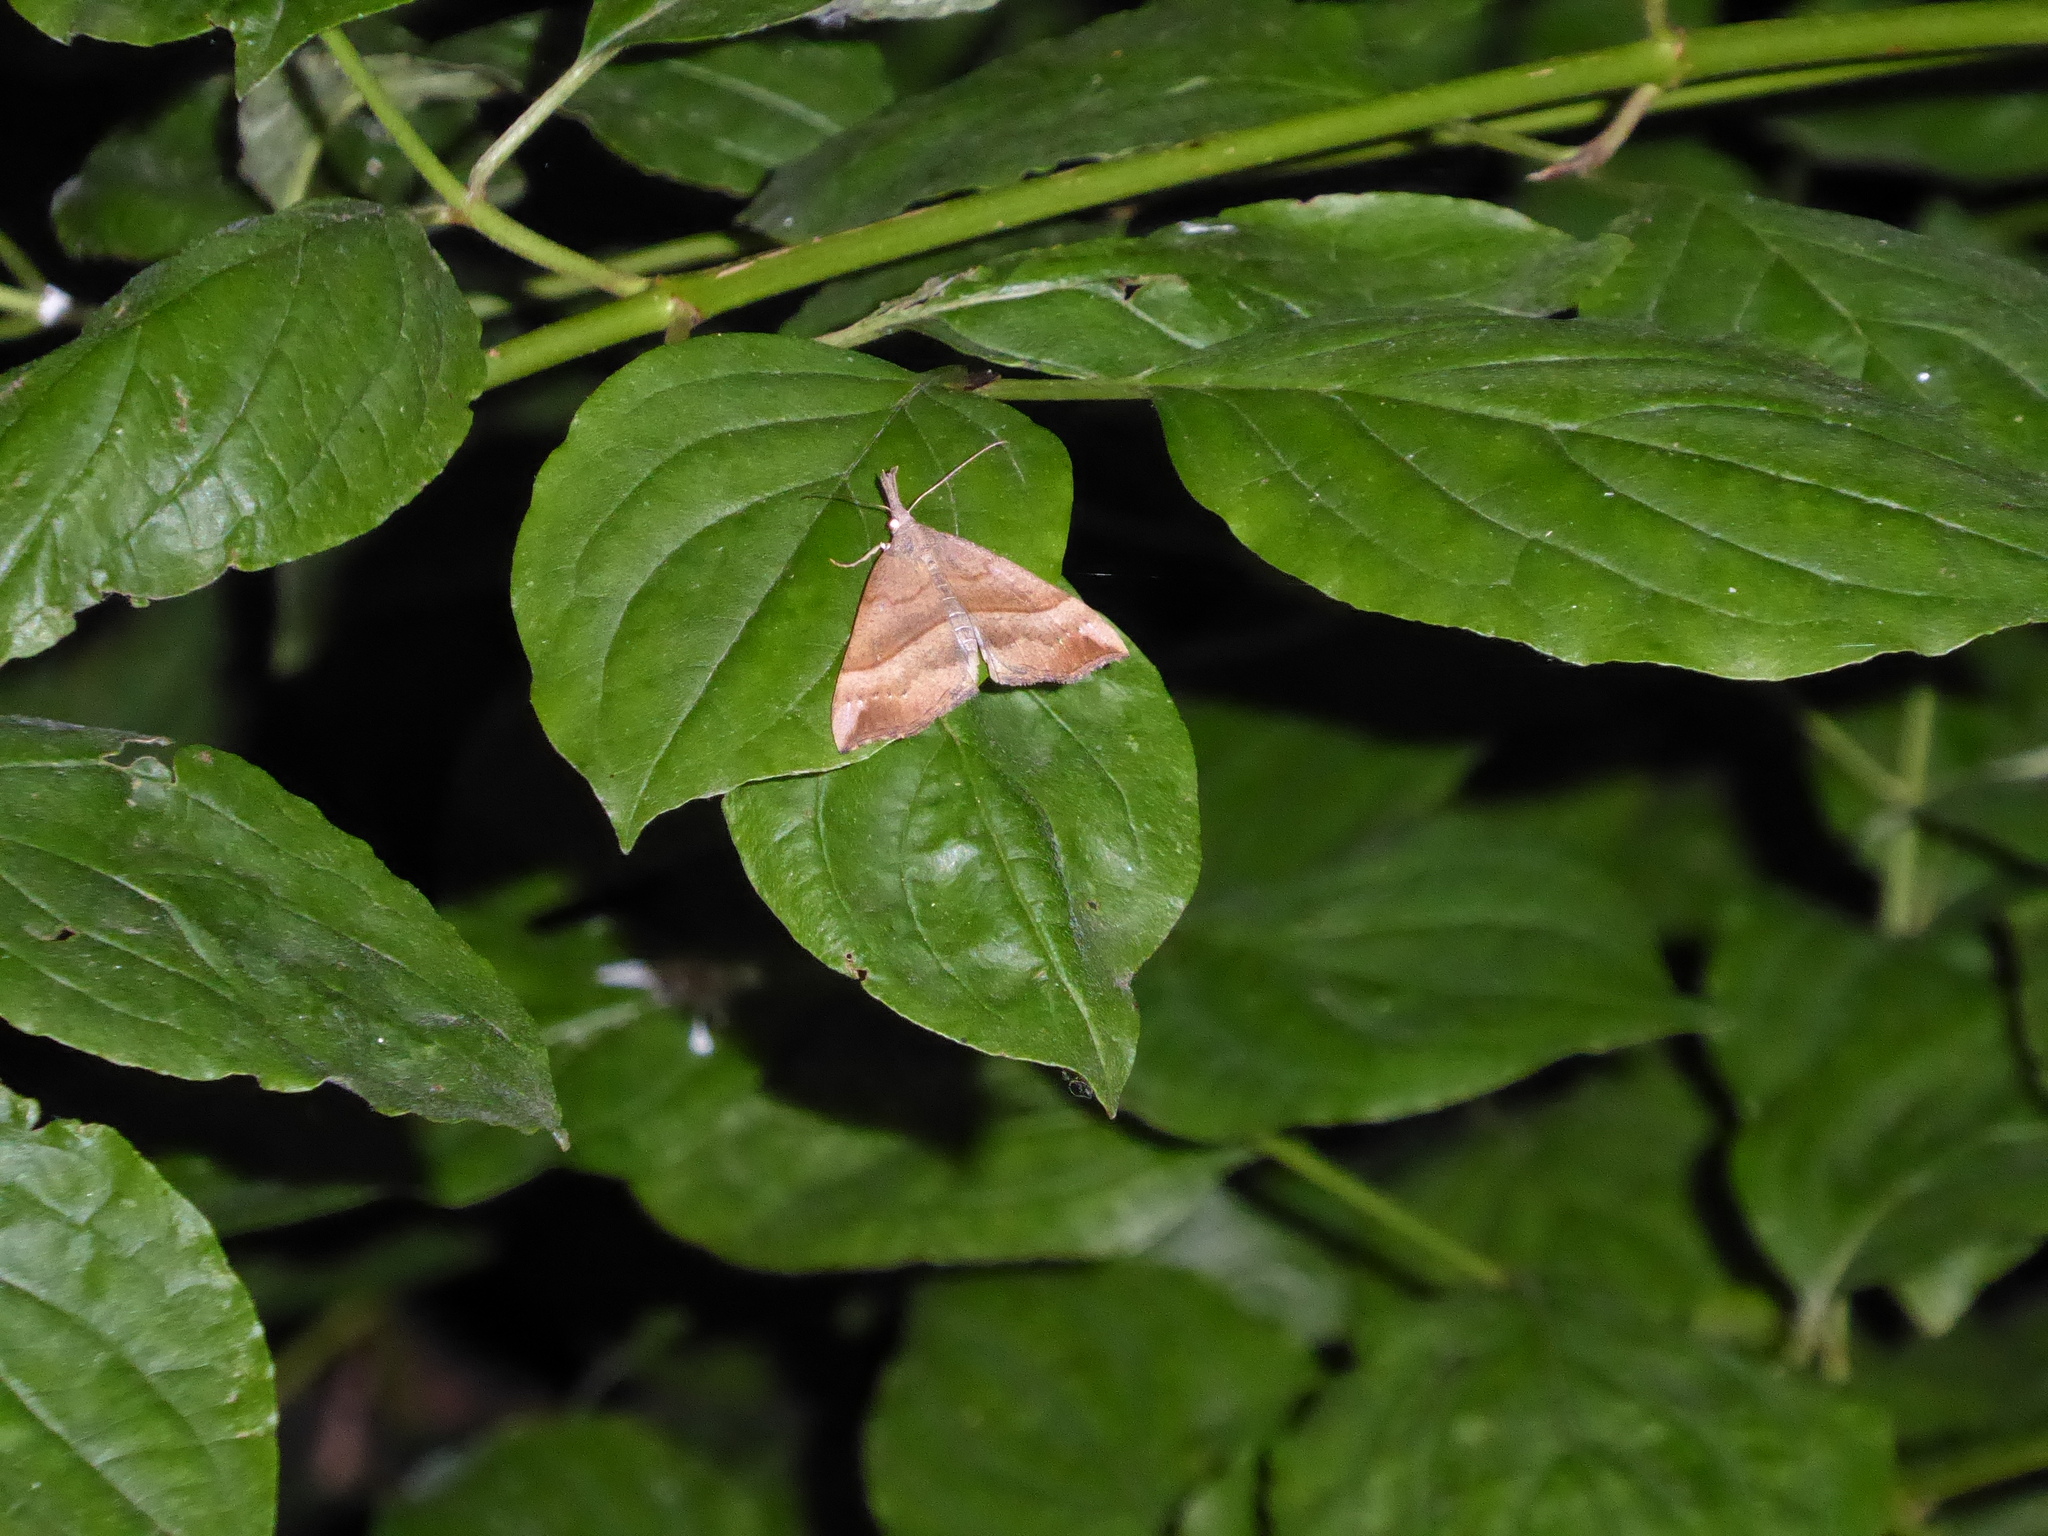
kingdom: Animalia
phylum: Arthropoda
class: Insecta
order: Lepidoptera
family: Erebidae
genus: Hypena
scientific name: Hypena proboscidalis
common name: Snout
